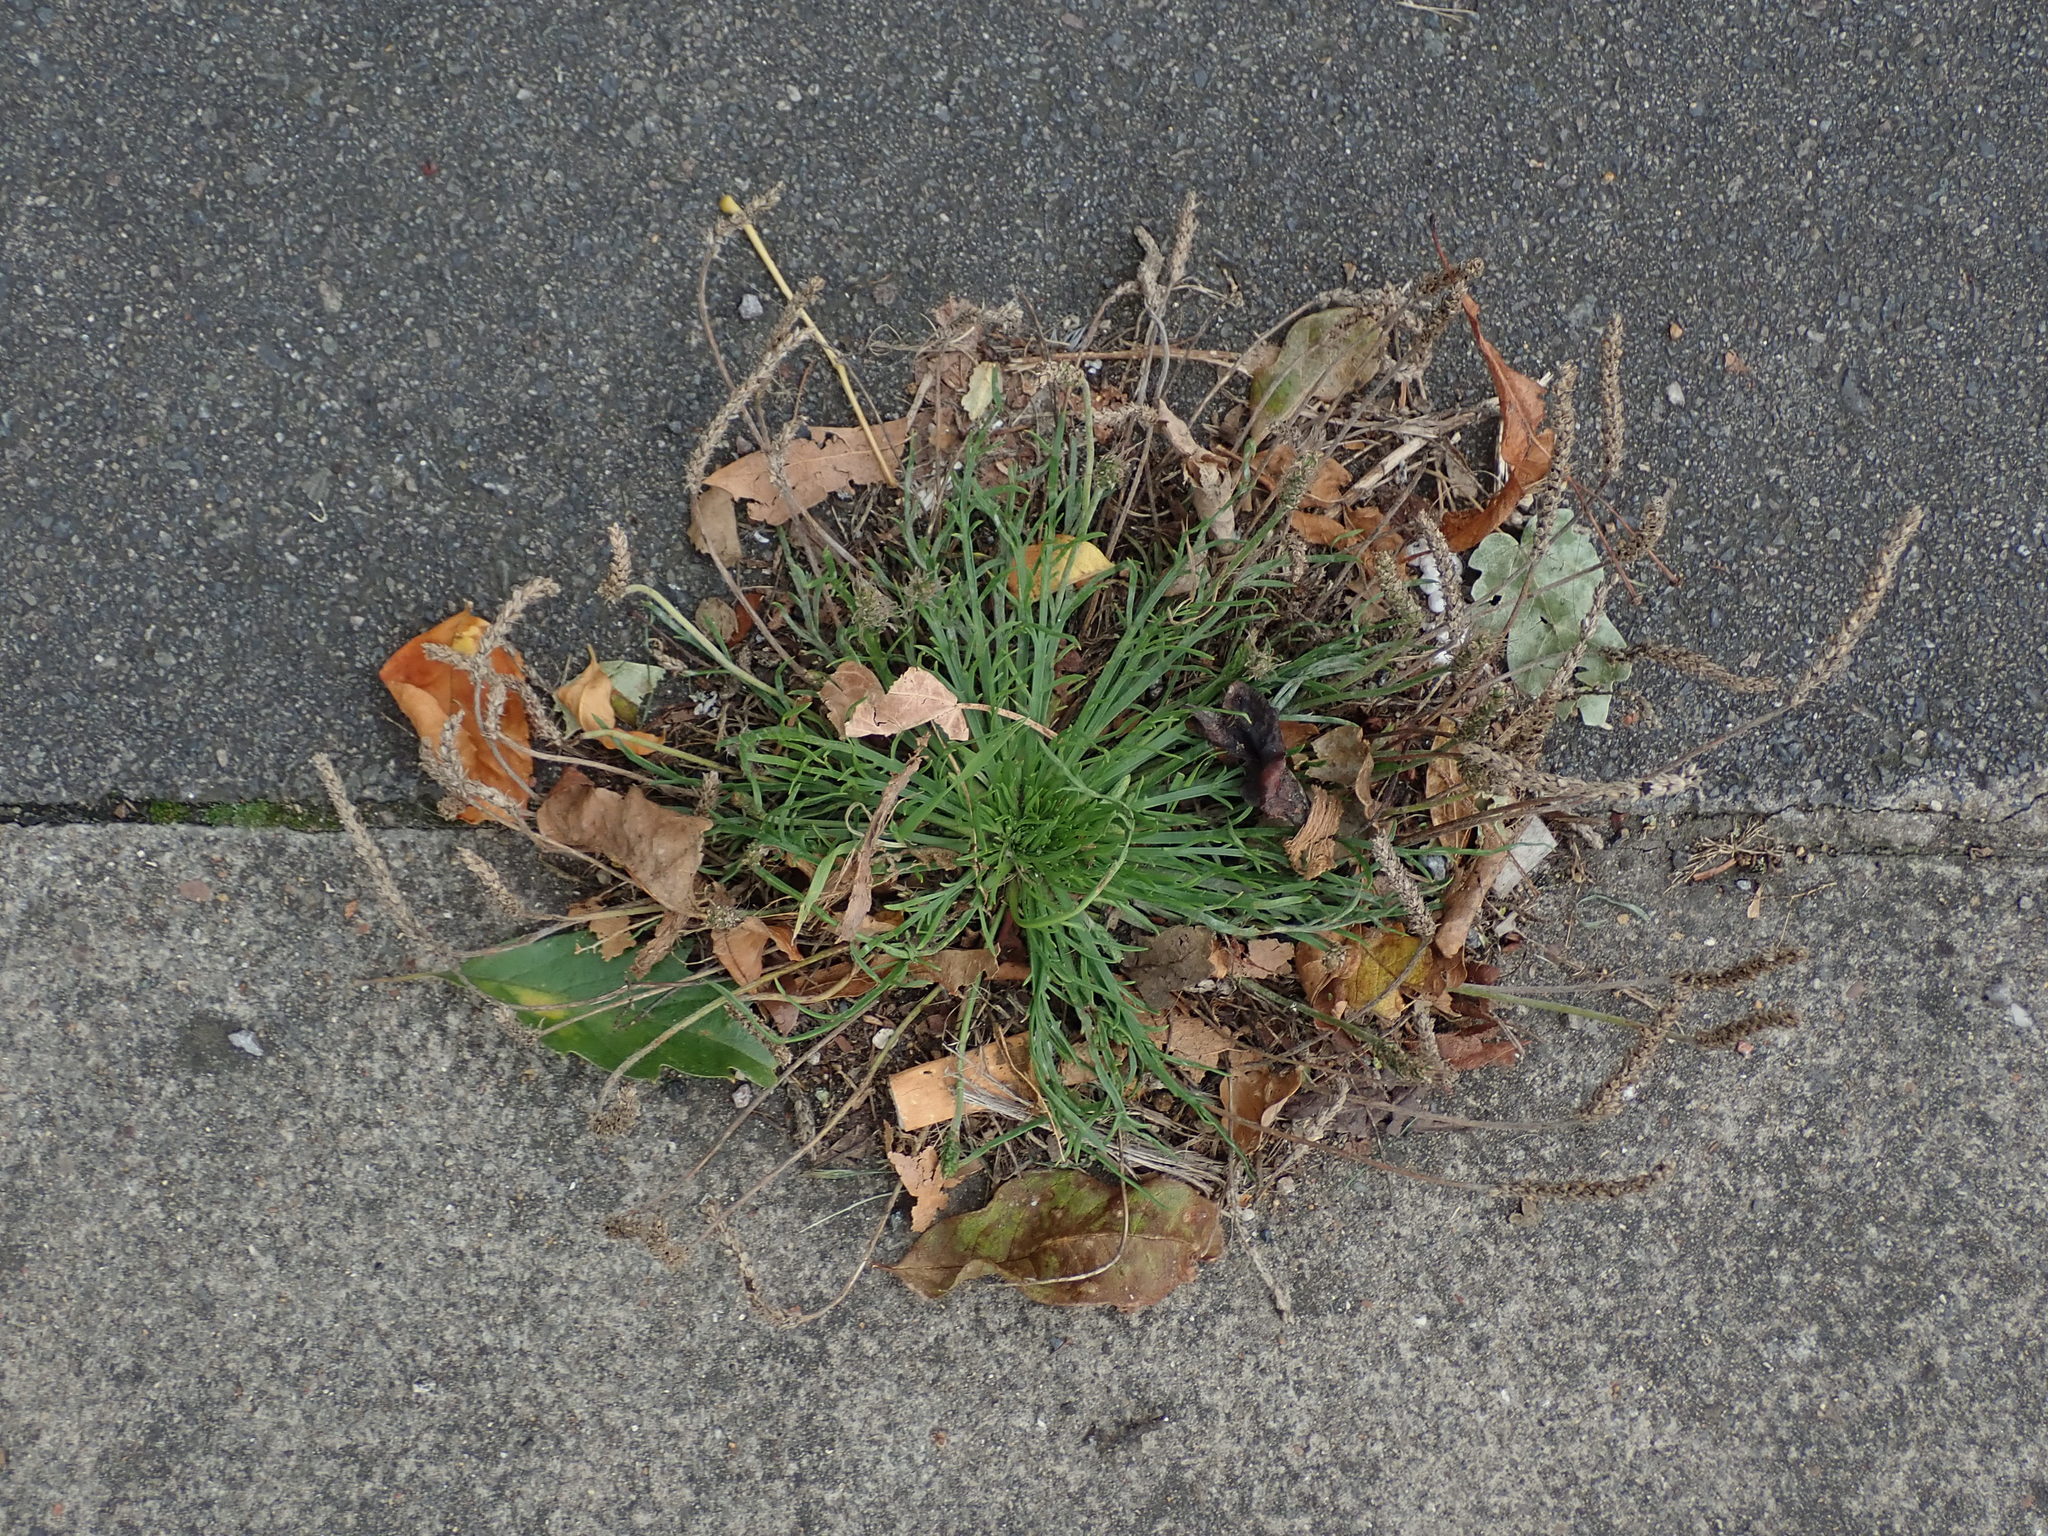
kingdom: Plantae
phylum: Tracheophyta
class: Magnoliopsida
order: Lamiales
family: Plantaginaceae
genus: Plantago
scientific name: Plantago coronopus
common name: Buck's-horn plantain
